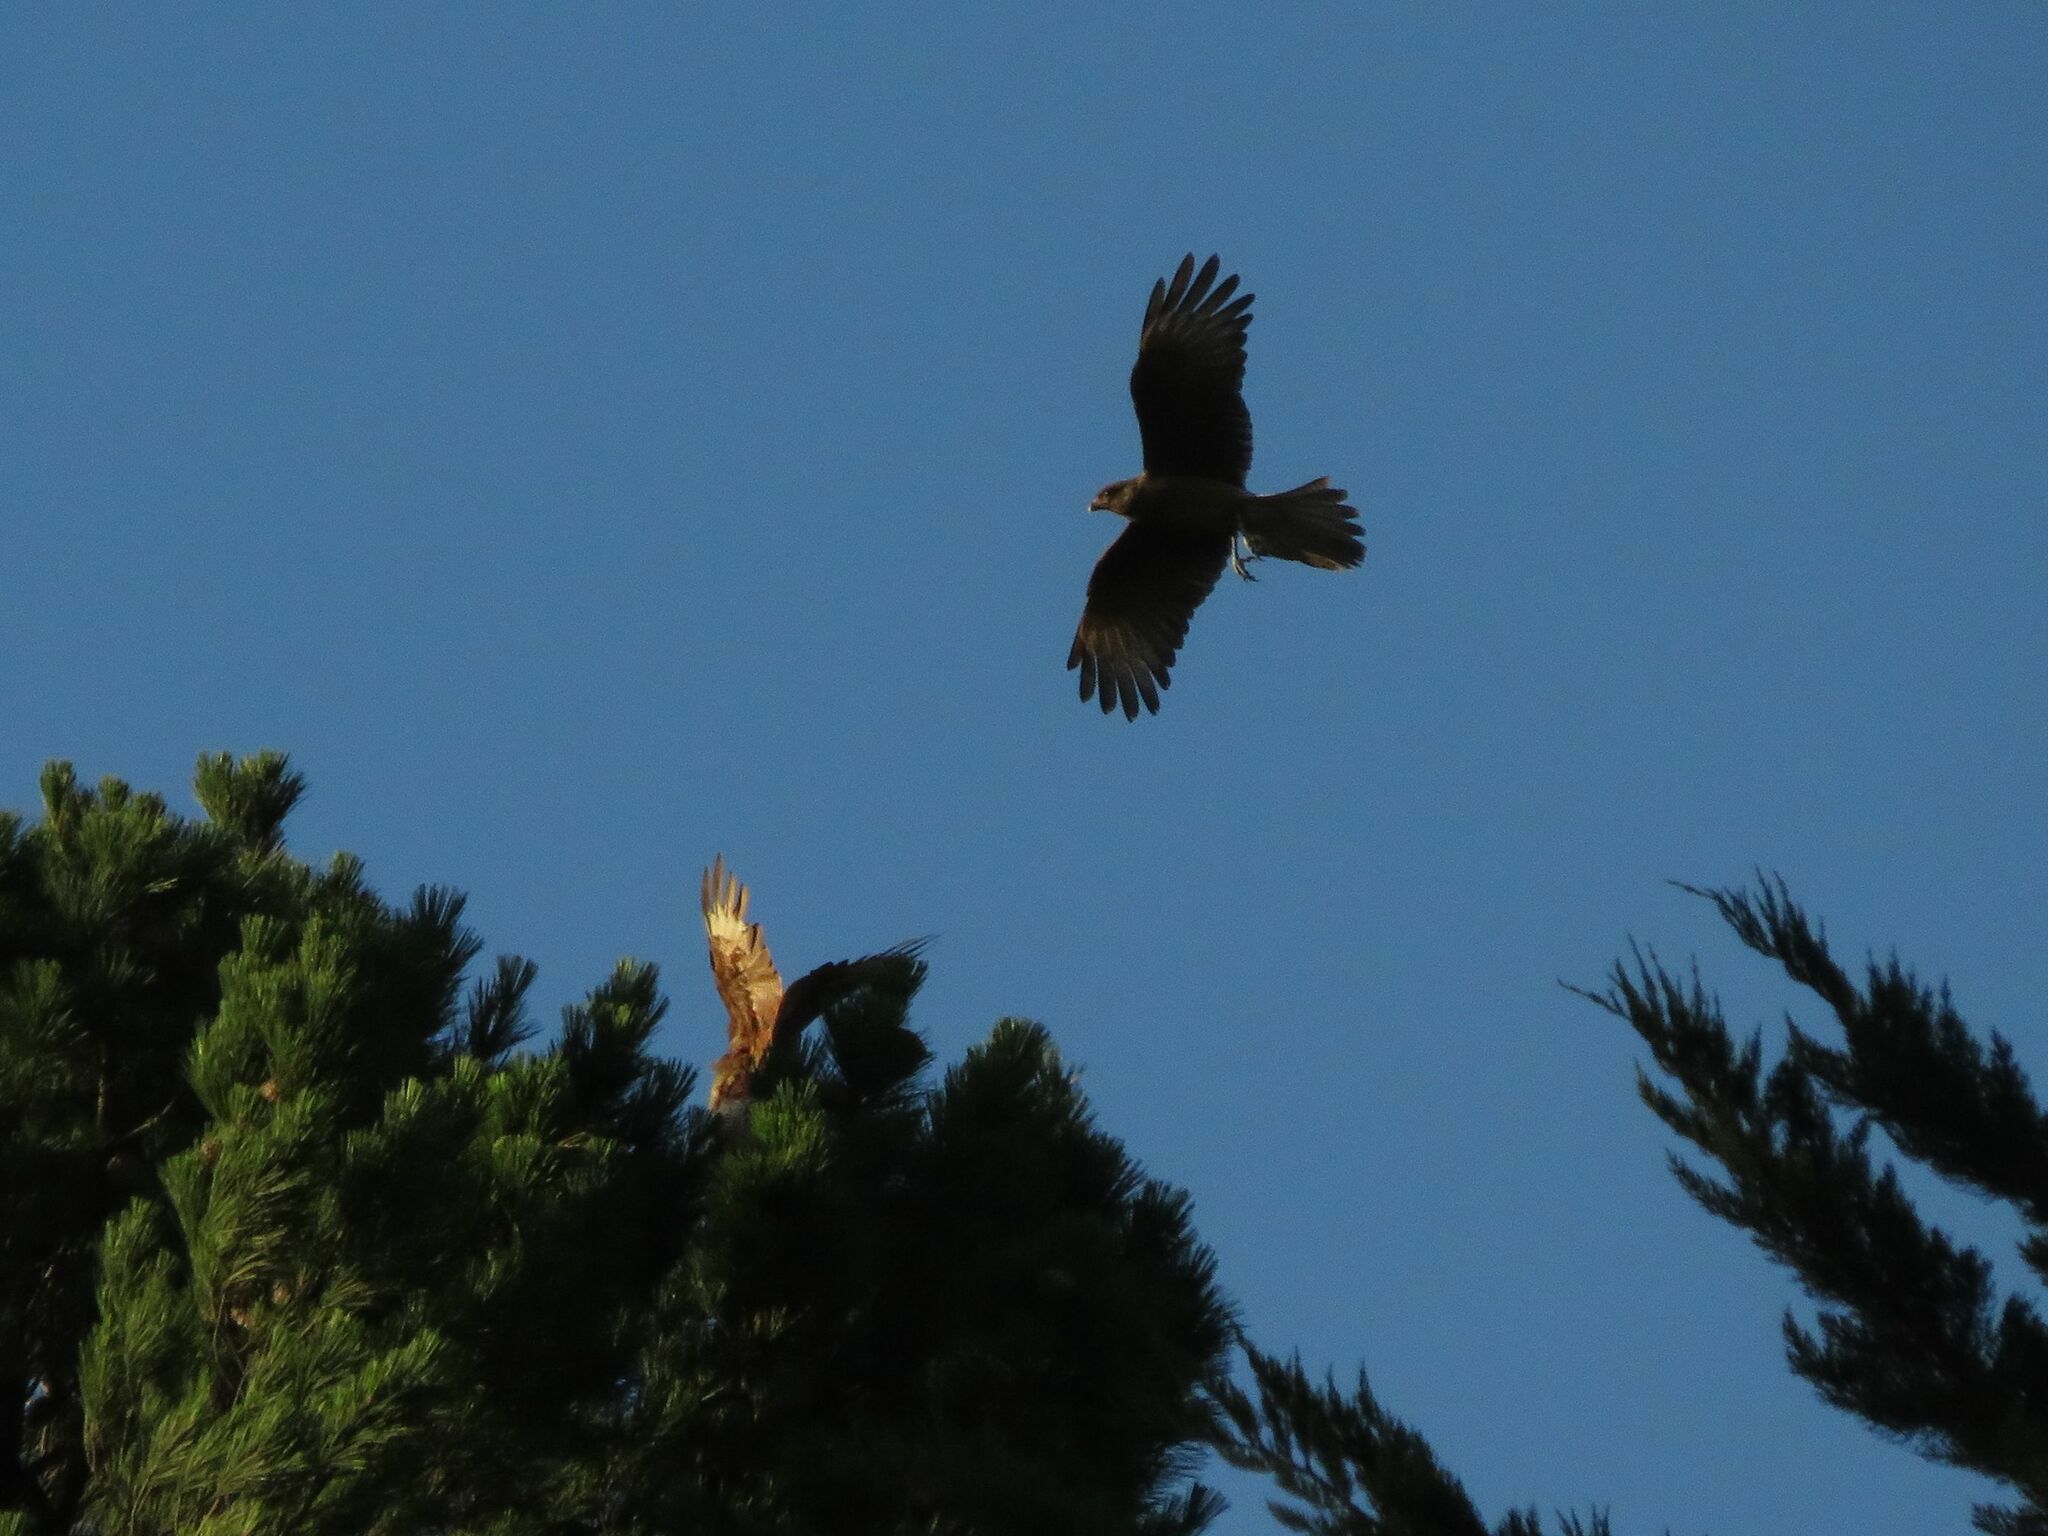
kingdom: Animalia
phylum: Chordata
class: Aves
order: Falconiformes
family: Falconidae
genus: Daptrius
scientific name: Daptrius
